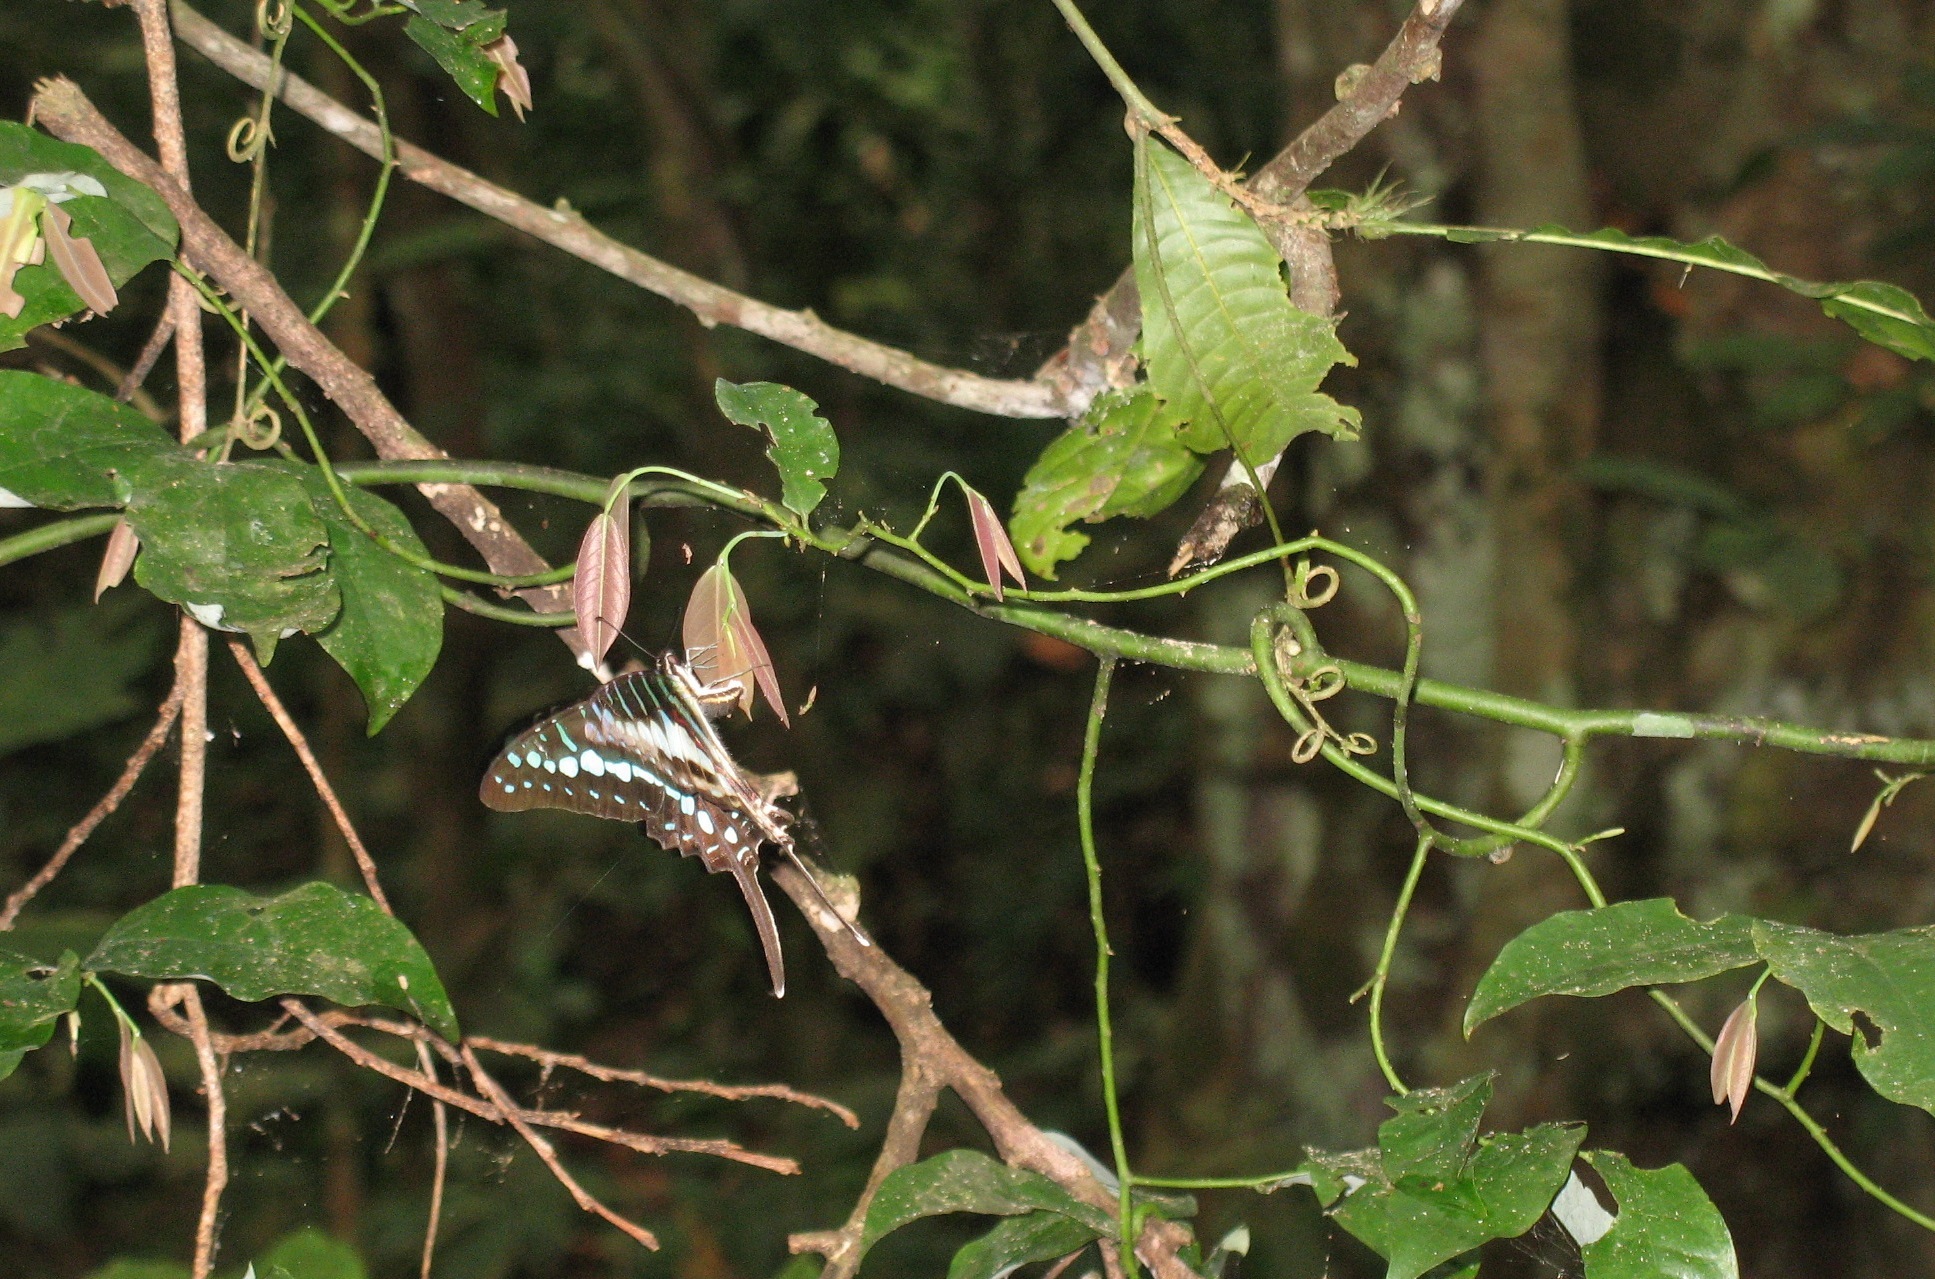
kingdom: Animalia
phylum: Arthropoda
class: Insecta
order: Lepidoptera
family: Papilionidae
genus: Graphium
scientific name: Graphium policenes
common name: Common swordtail
